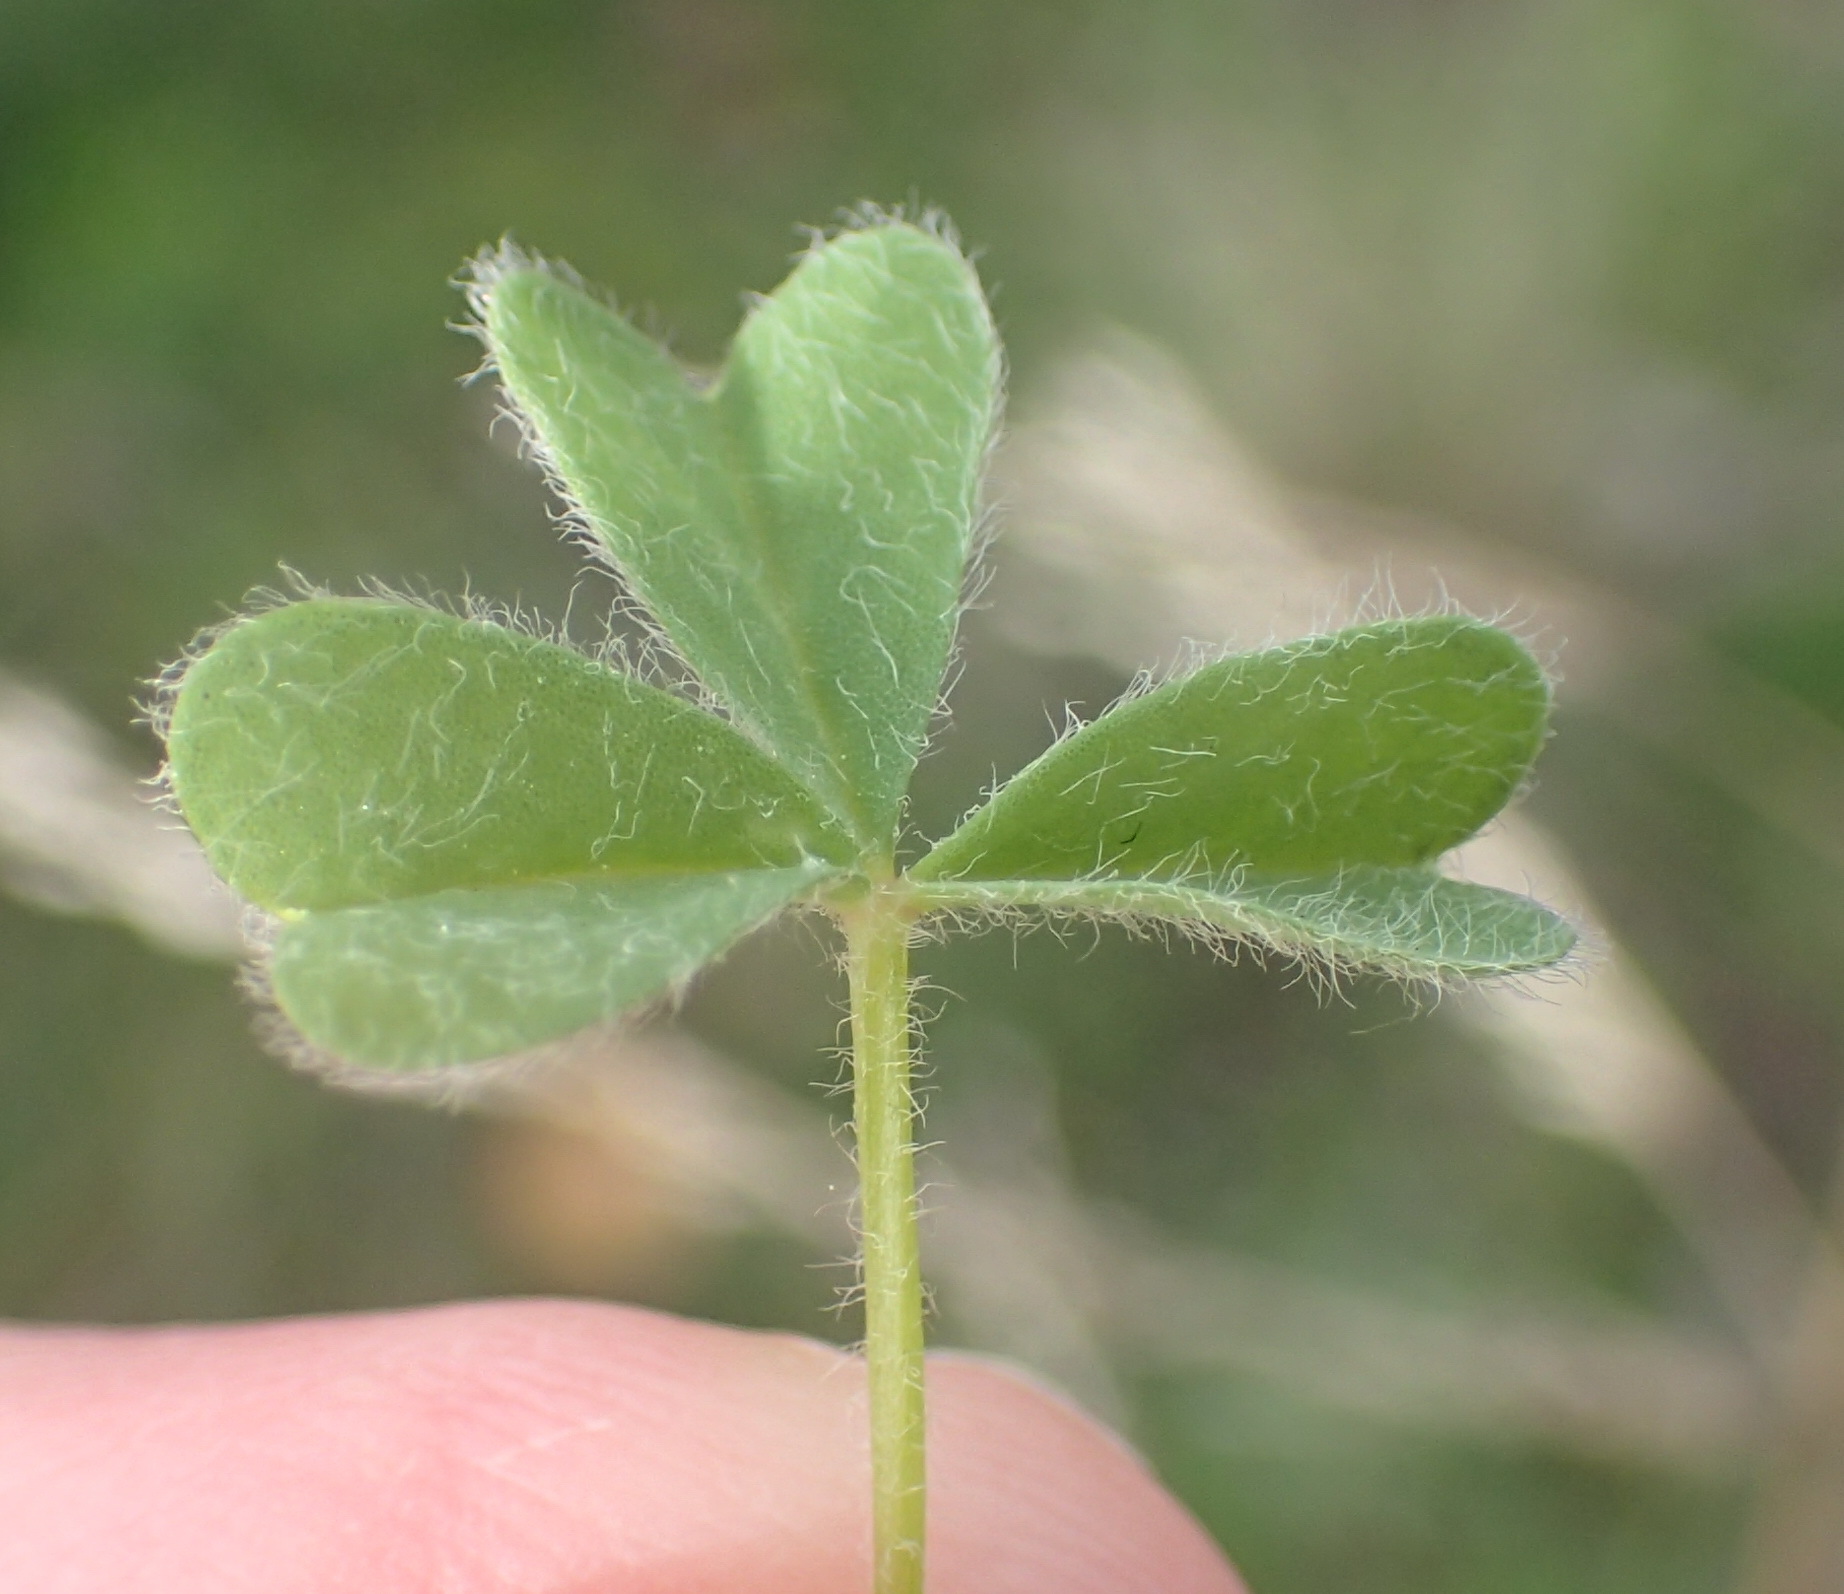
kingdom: Plantae
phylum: Tracheophyta
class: Magnoliopsida
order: Oxalidales
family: Oxalidaceae
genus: Oxalis
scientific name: Oxalis obtusa
